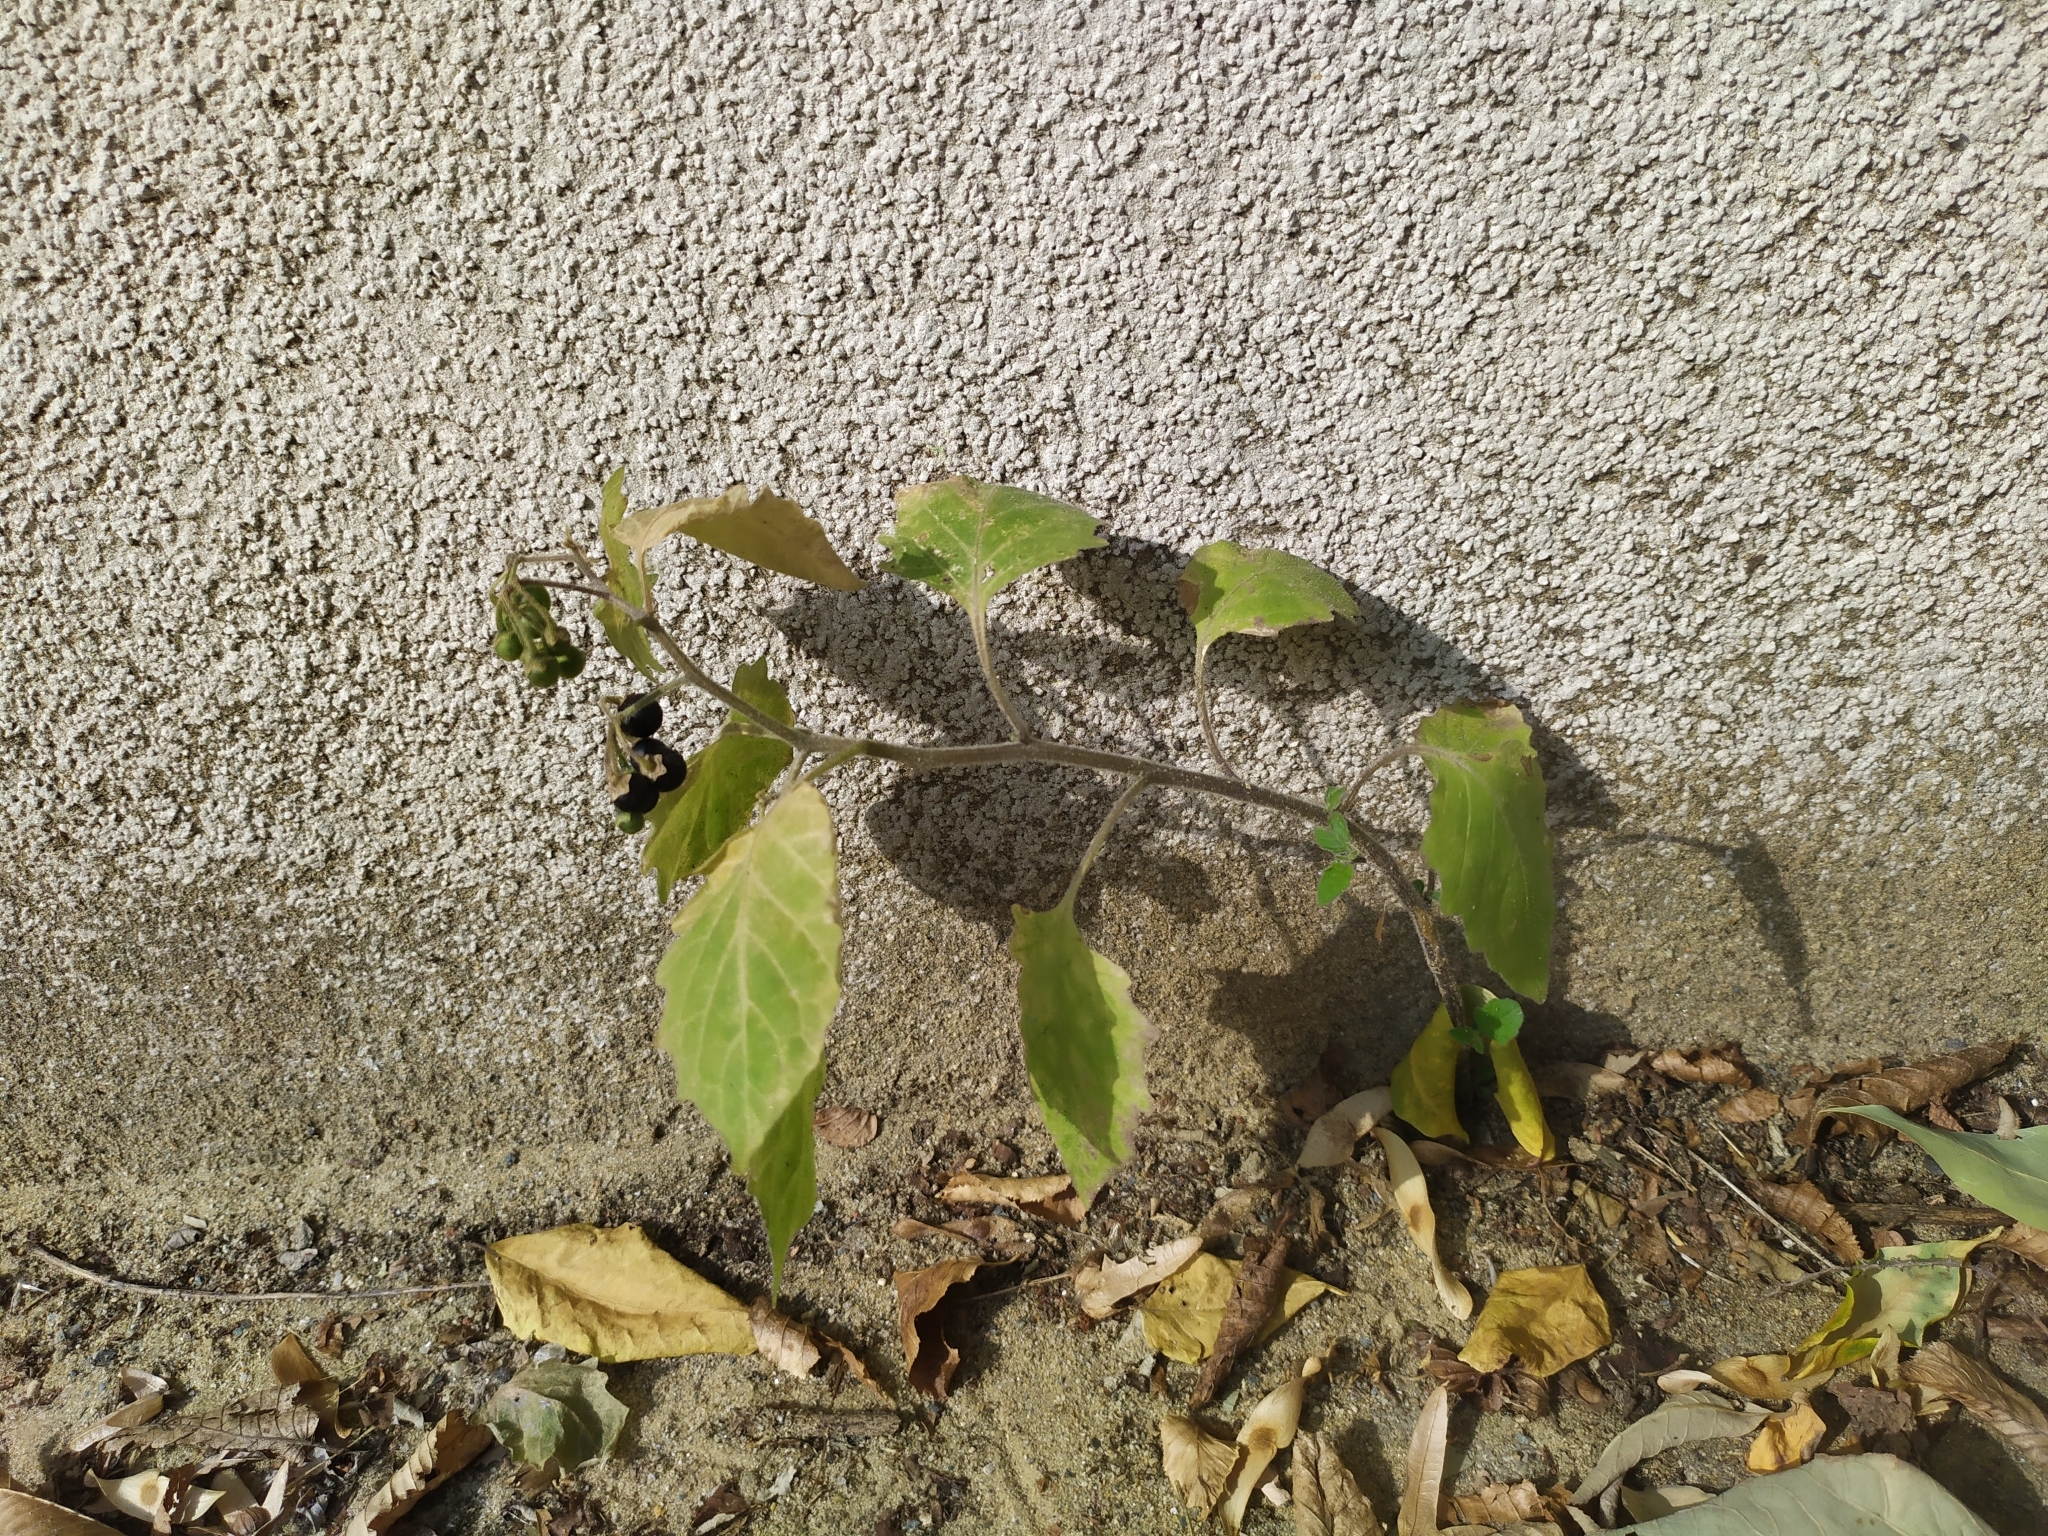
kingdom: Plantae
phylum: Tracheophyta
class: Magnoliopsida
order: Solanales
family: Solanaceae
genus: Solanum
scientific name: Solanum nigrum
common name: Black nightshade
